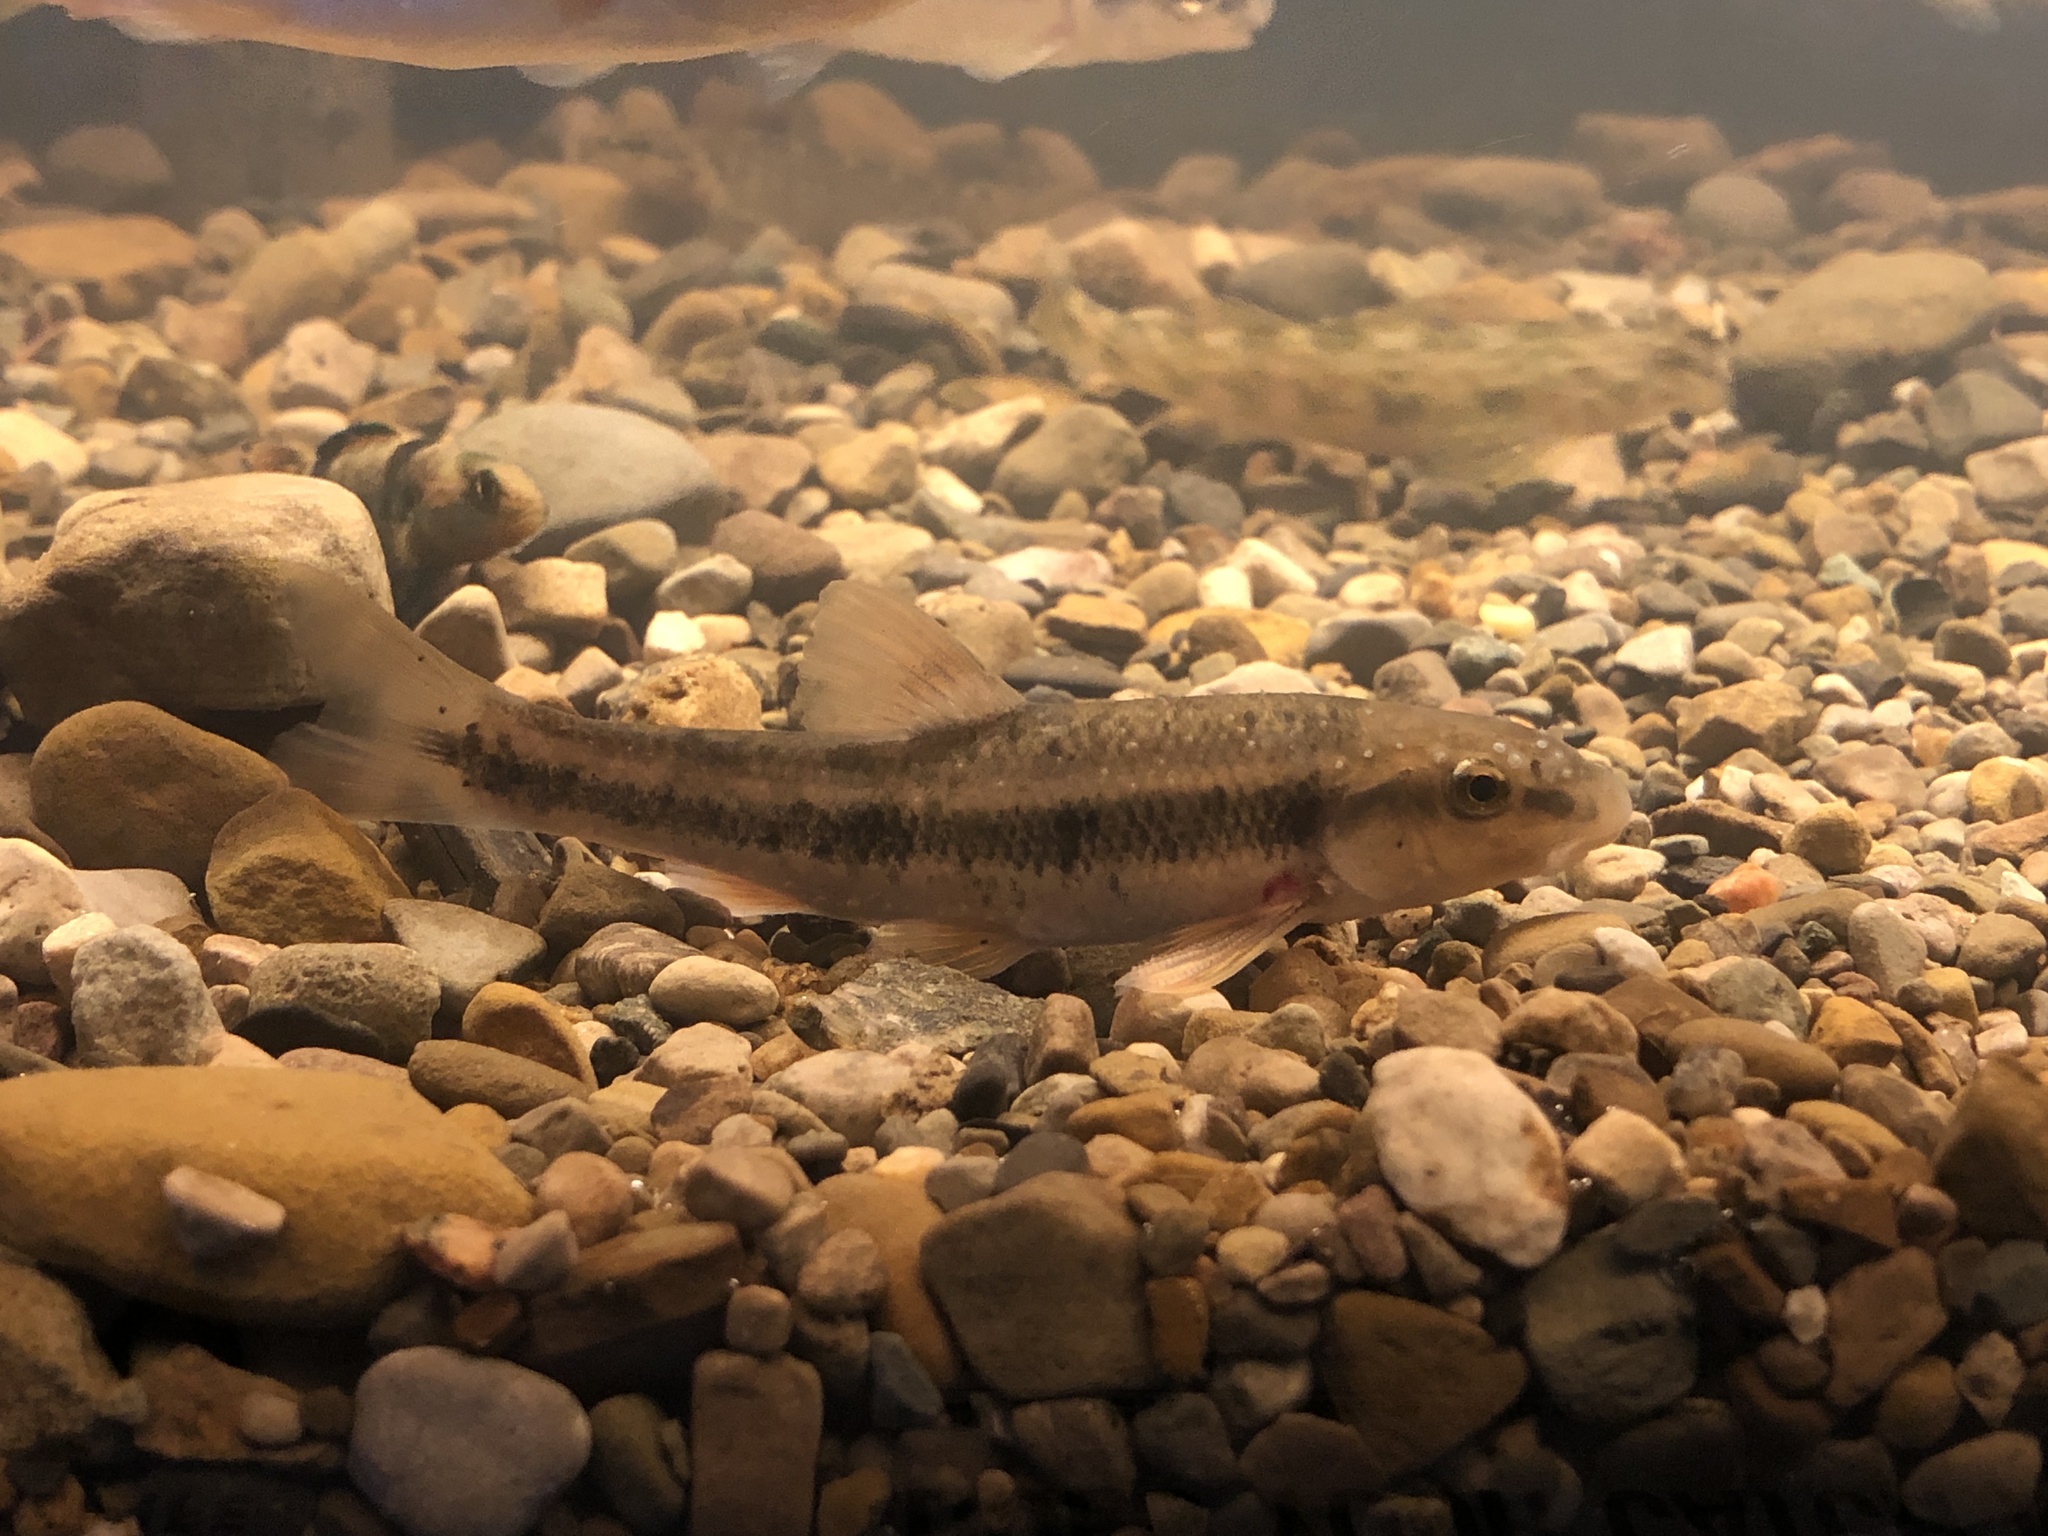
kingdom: Animalia
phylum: Chordata
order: Cypriniformes
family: Cyprinidae
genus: Campostoma
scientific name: Campostoma anomalum
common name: Central stoneroller
